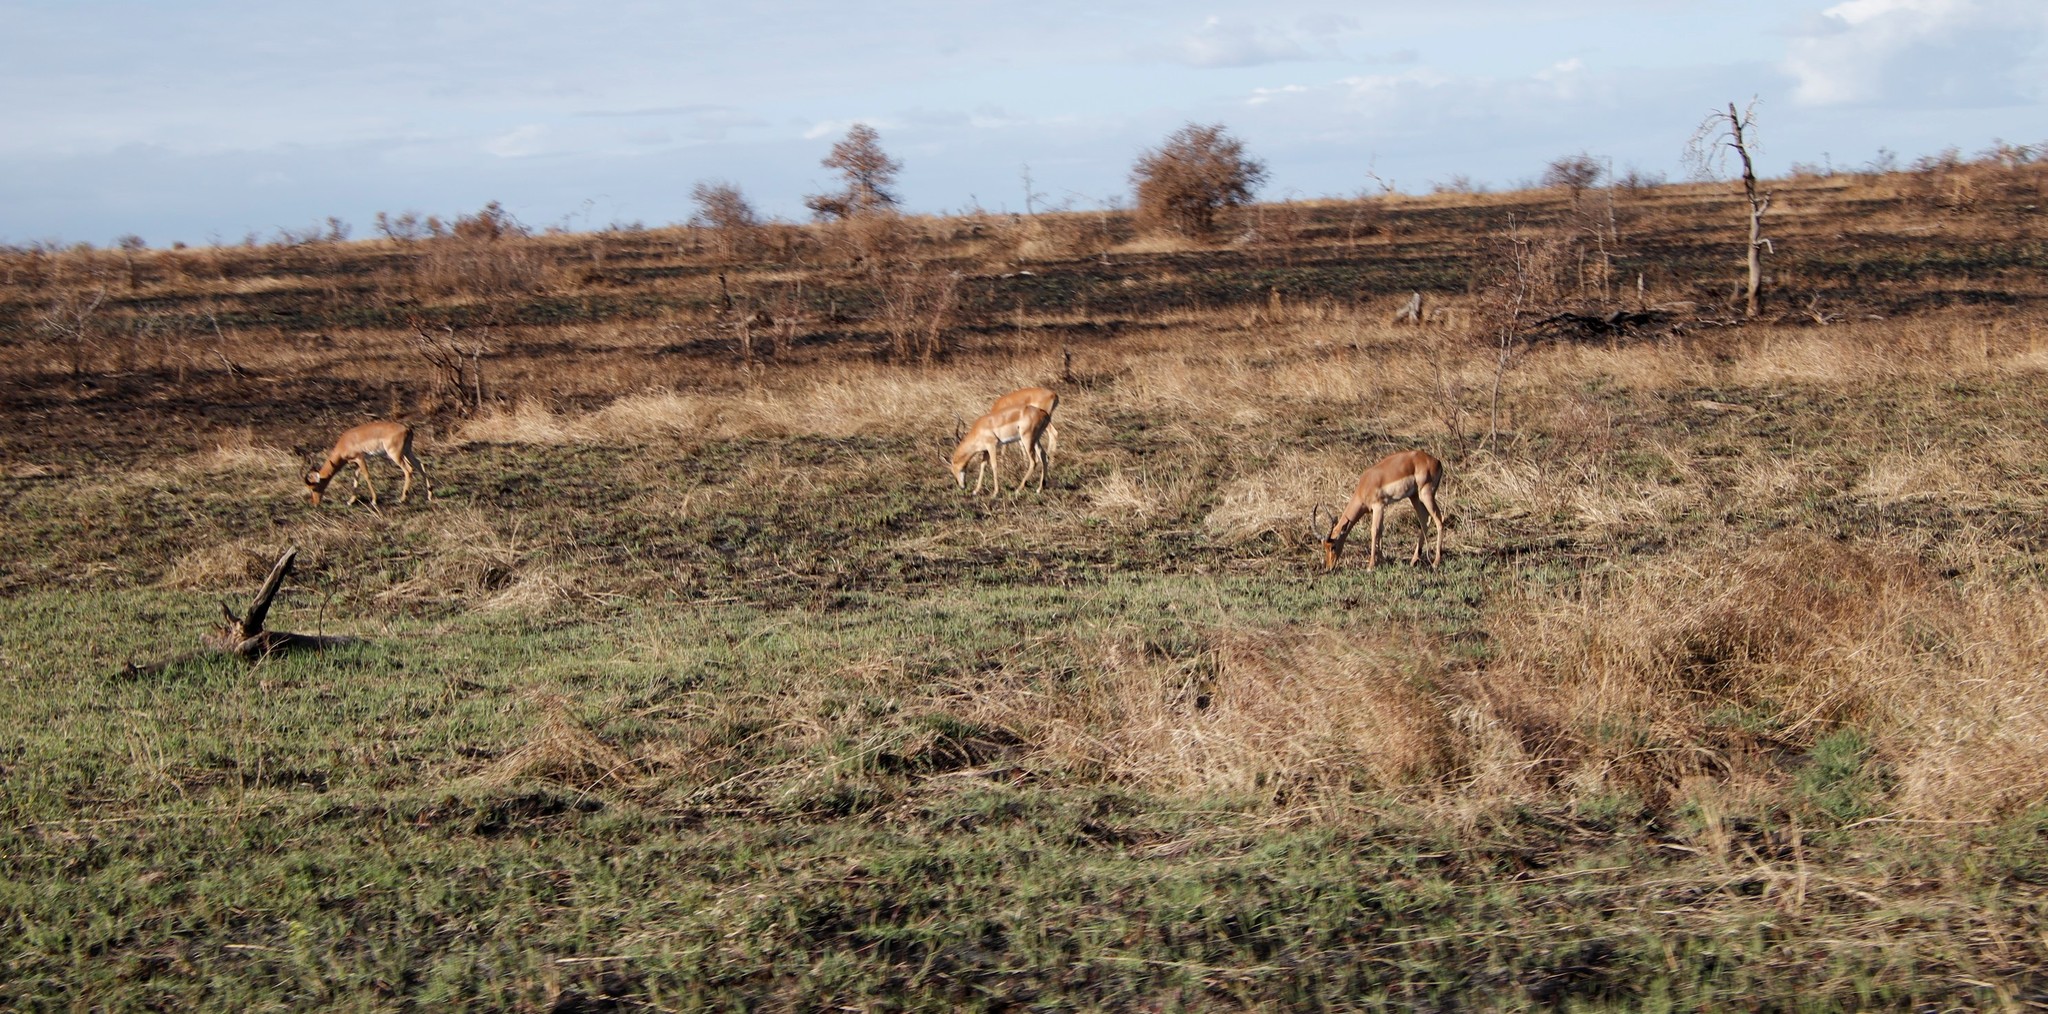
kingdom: Animalia
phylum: Chordata
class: Mammalia
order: Artiodactyla
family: Bovidae
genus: Aepyceros
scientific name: Aepyceros melampus
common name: Impala
